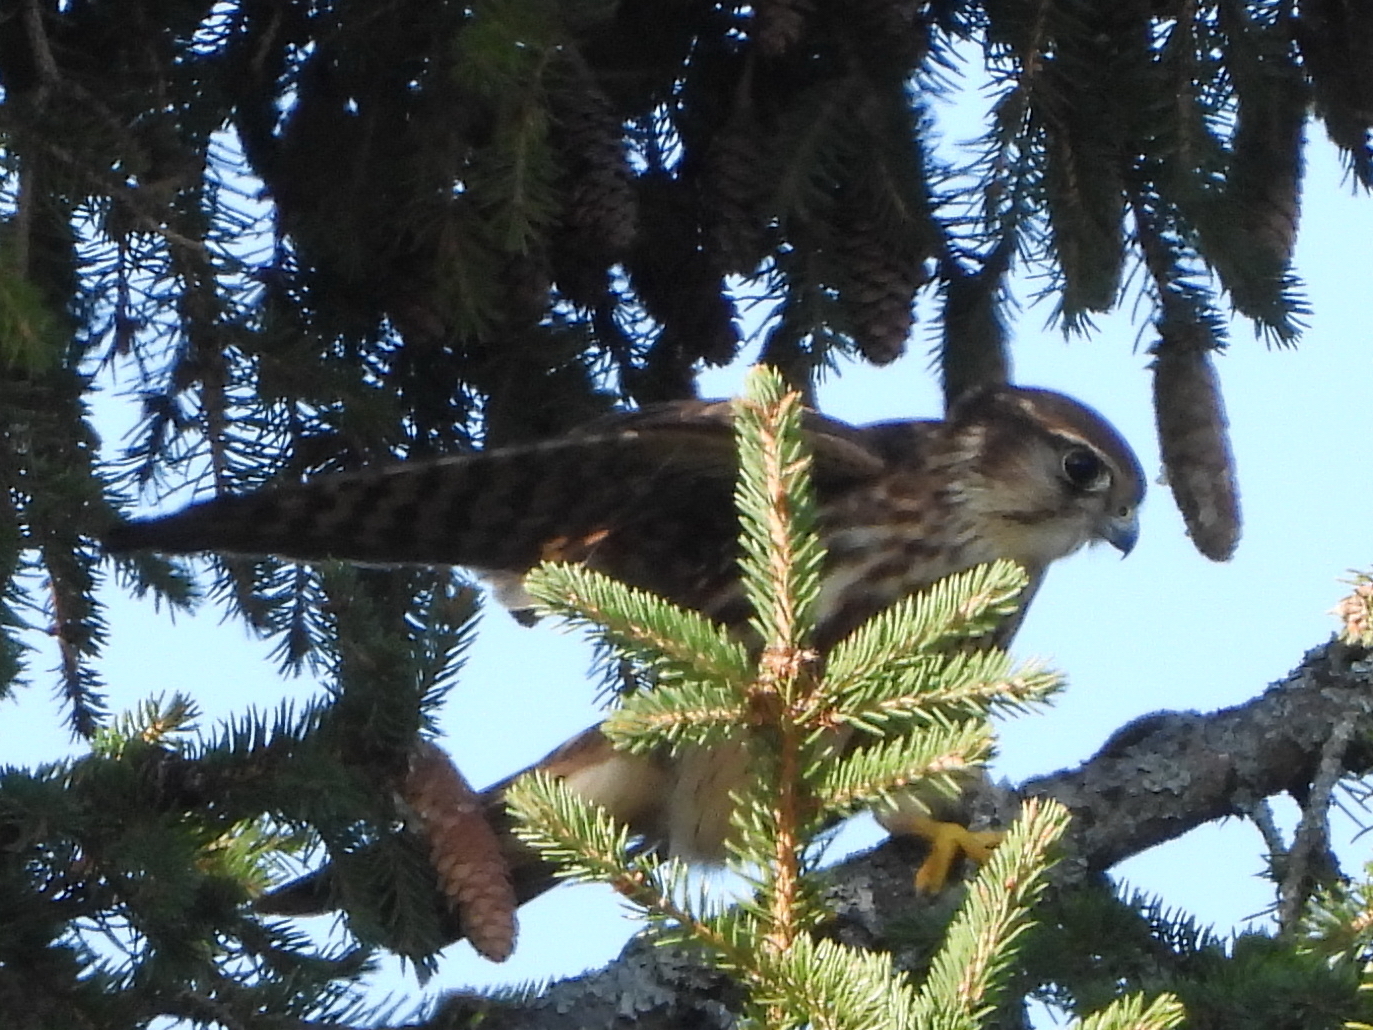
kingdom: Animalia
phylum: Chordata
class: Aves
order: Falconiformes
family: Falconidae
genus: Falco
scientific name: Falco columbarius
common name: Merlin
